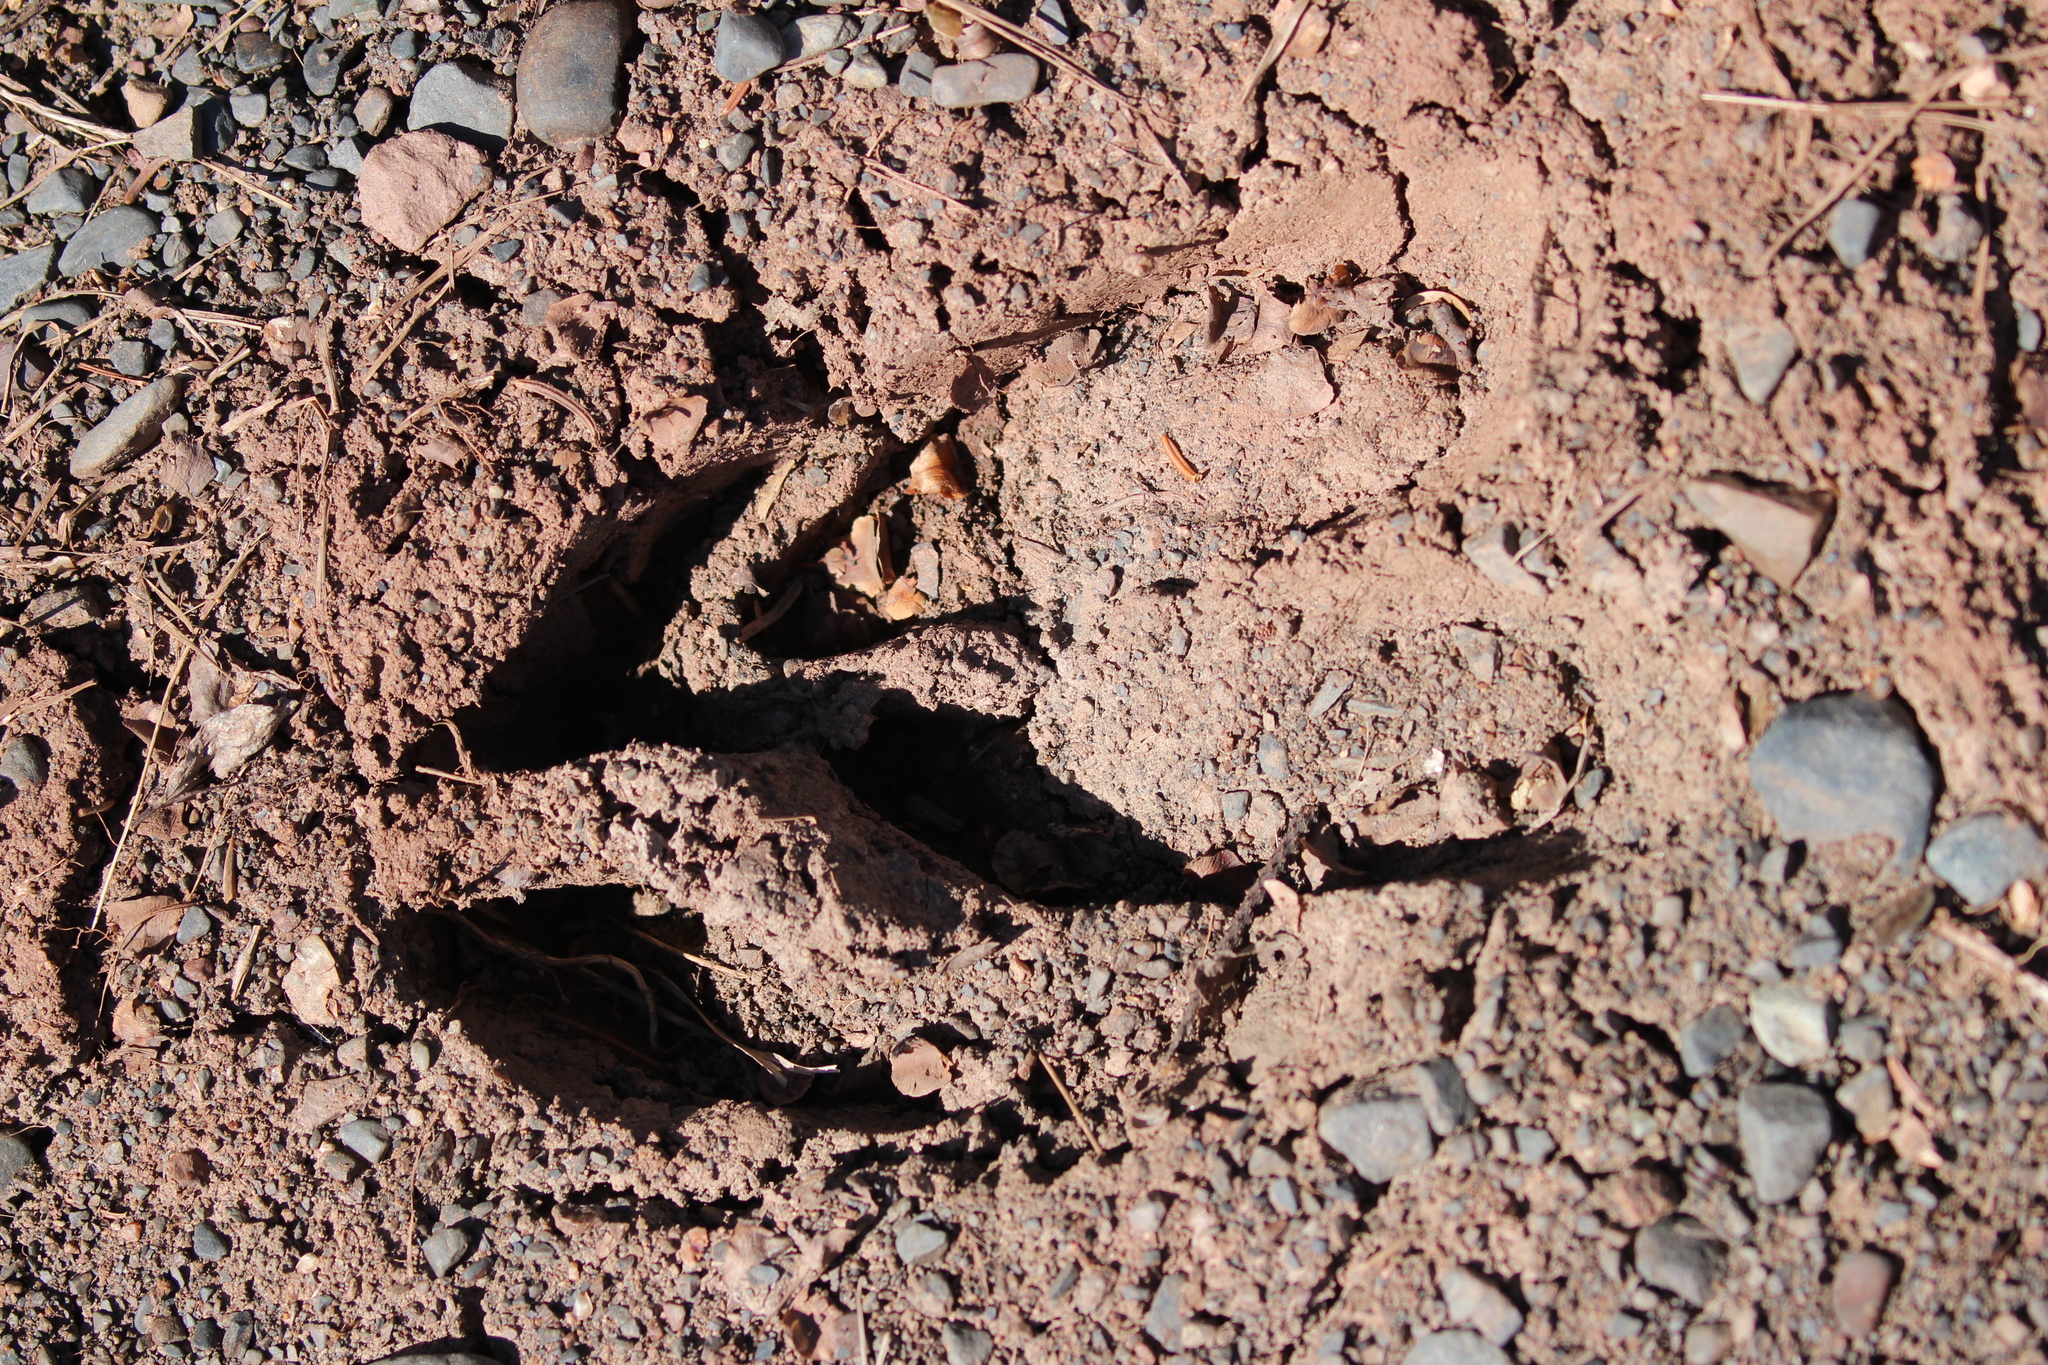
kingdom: Animalia
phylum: Chordata
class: Mammalia
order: Artiodactyla
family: Cervidae
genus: Alces
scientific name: Alces alces
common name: Moose
